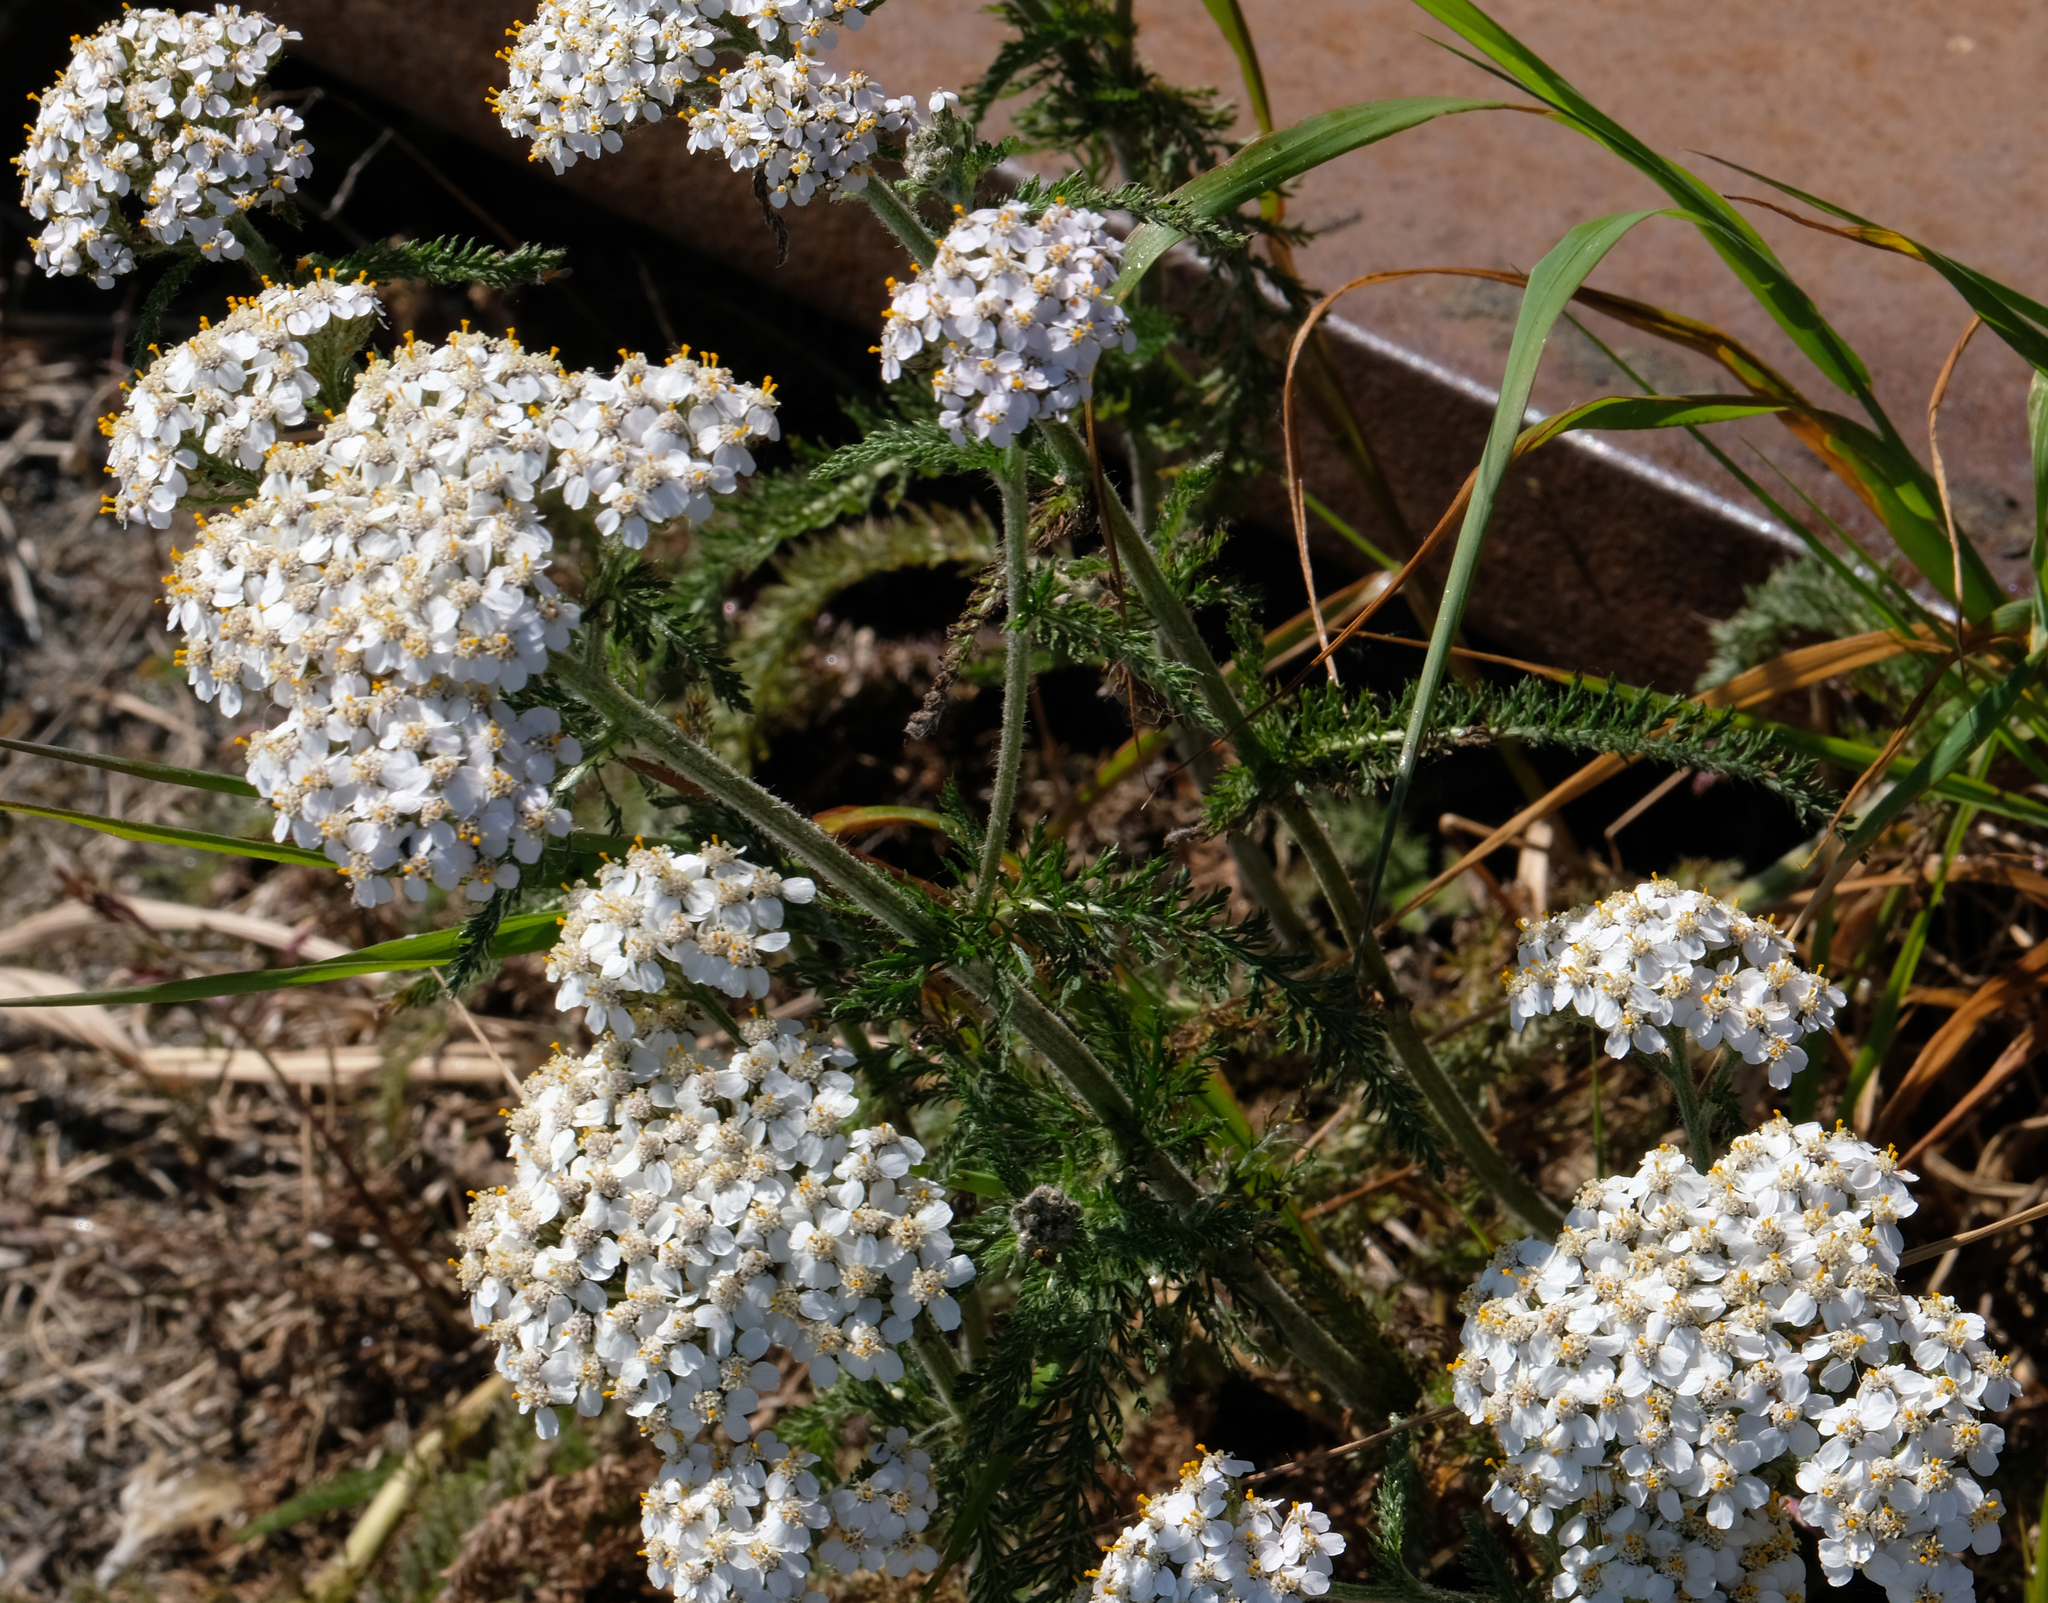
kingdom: Plantae
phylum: Tracheophyta
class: Magnoliopsida
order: Asterales
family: Asteraceae
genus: Achillea
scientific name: Achillea millefolium
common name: Yarrow
